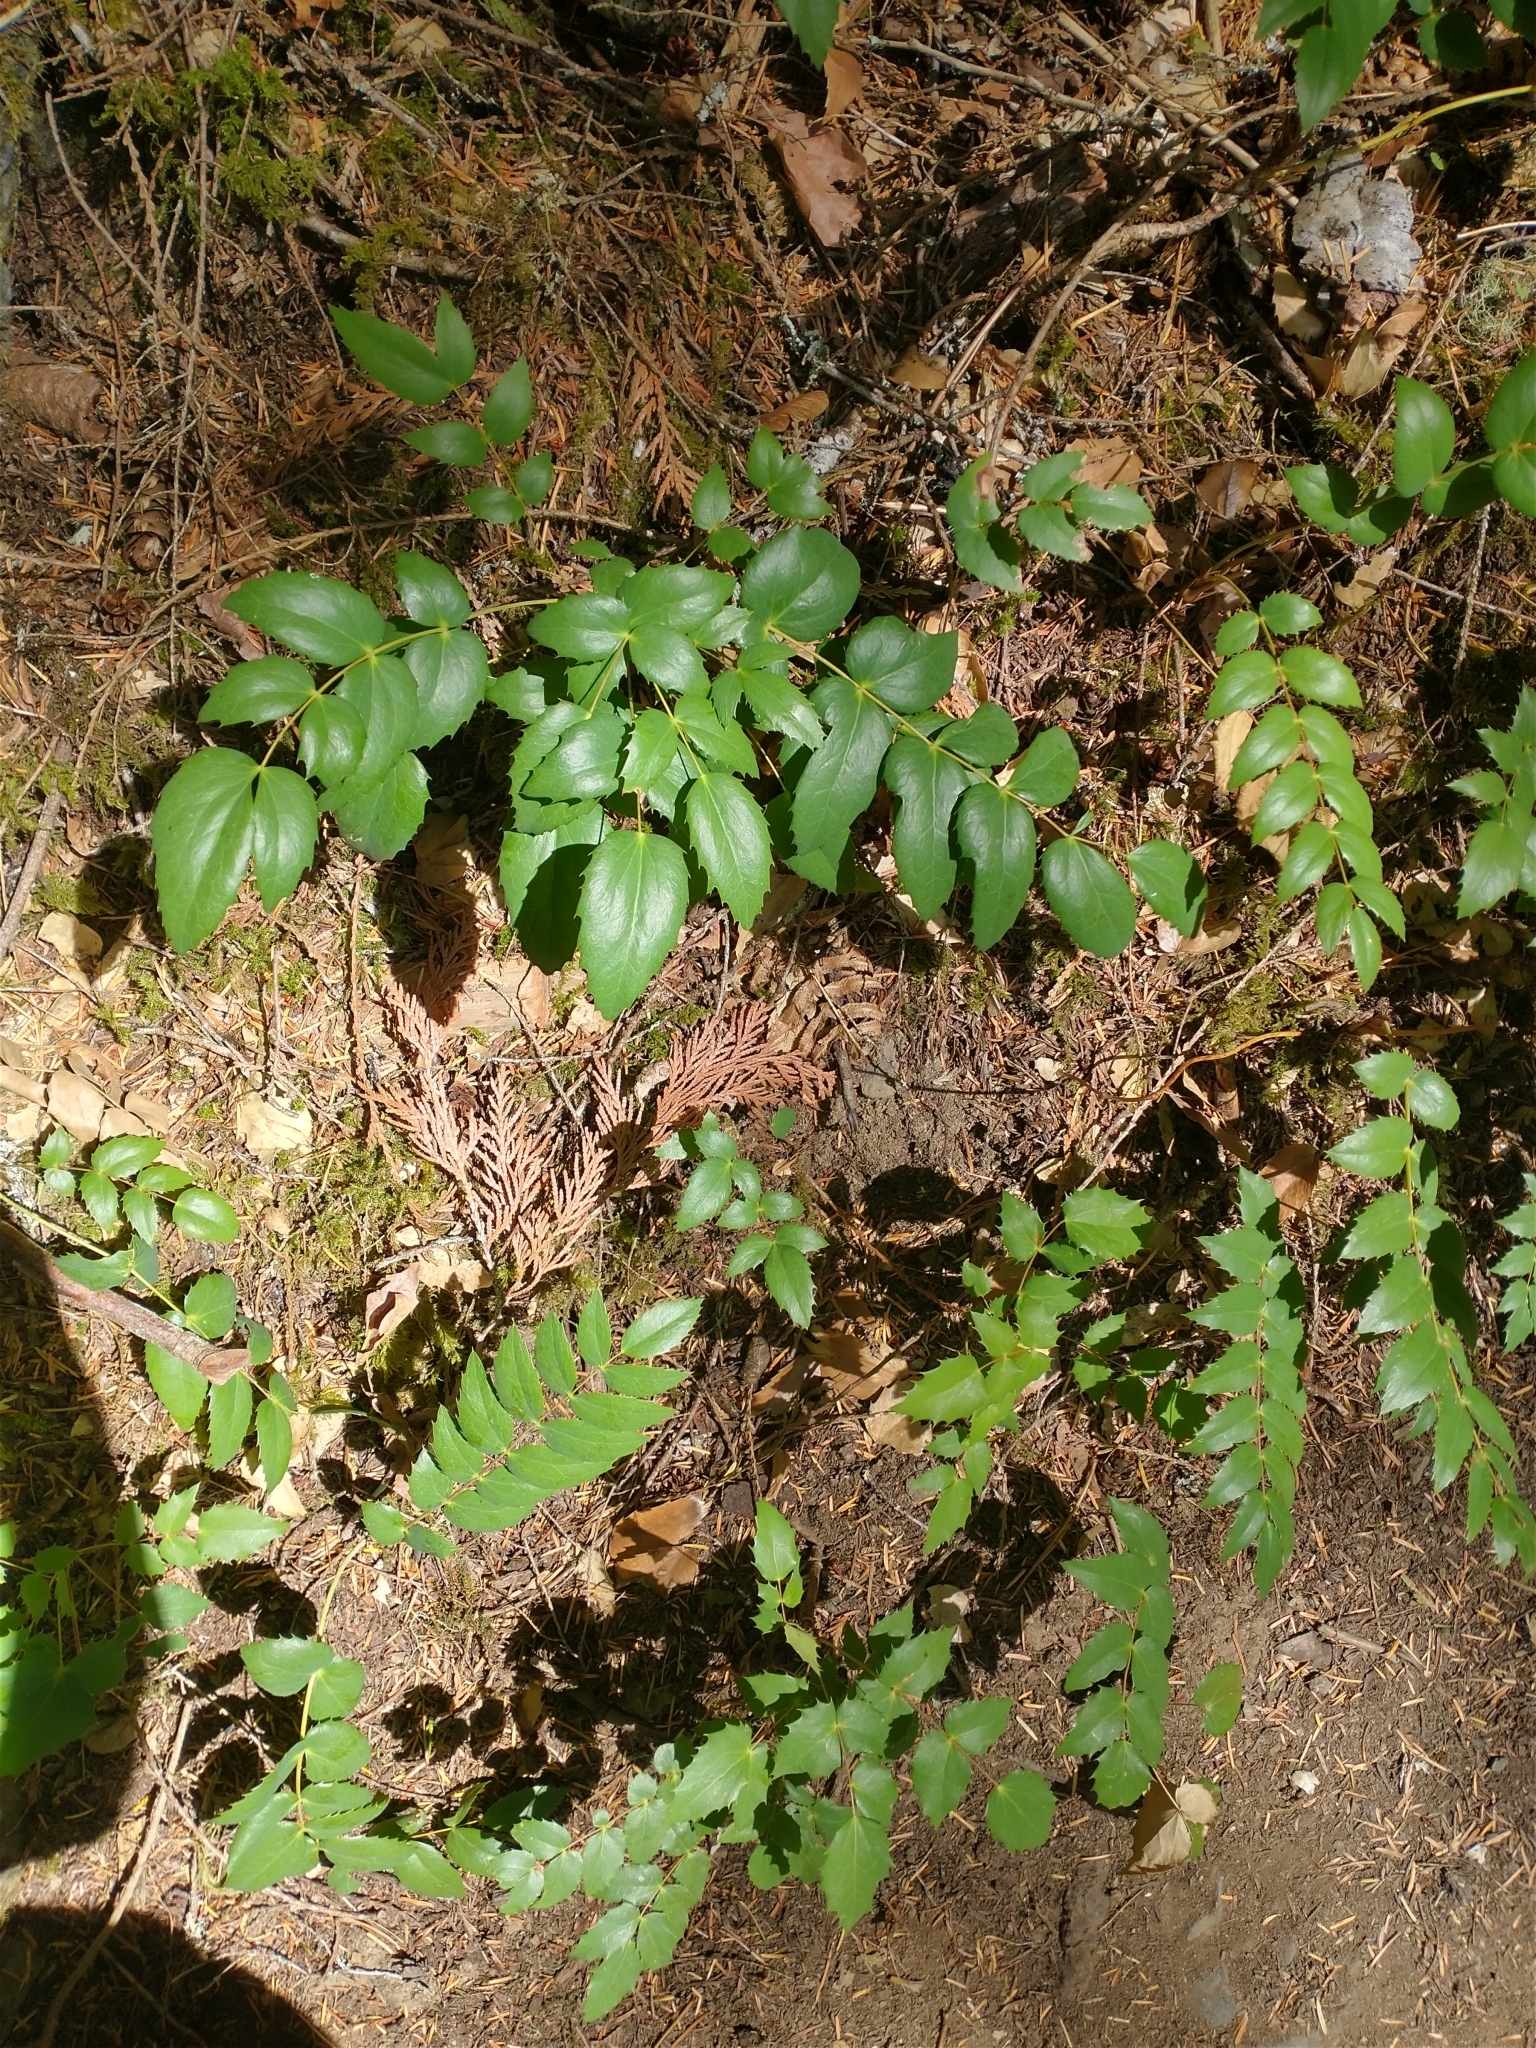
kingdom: Plantae
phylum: Tracheophyta
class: Magnoliopsida
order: Ranunculales
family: Berberidaceae
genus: Mahonia
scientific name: Mahonia nervosa
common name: Cascade oregon-grape
